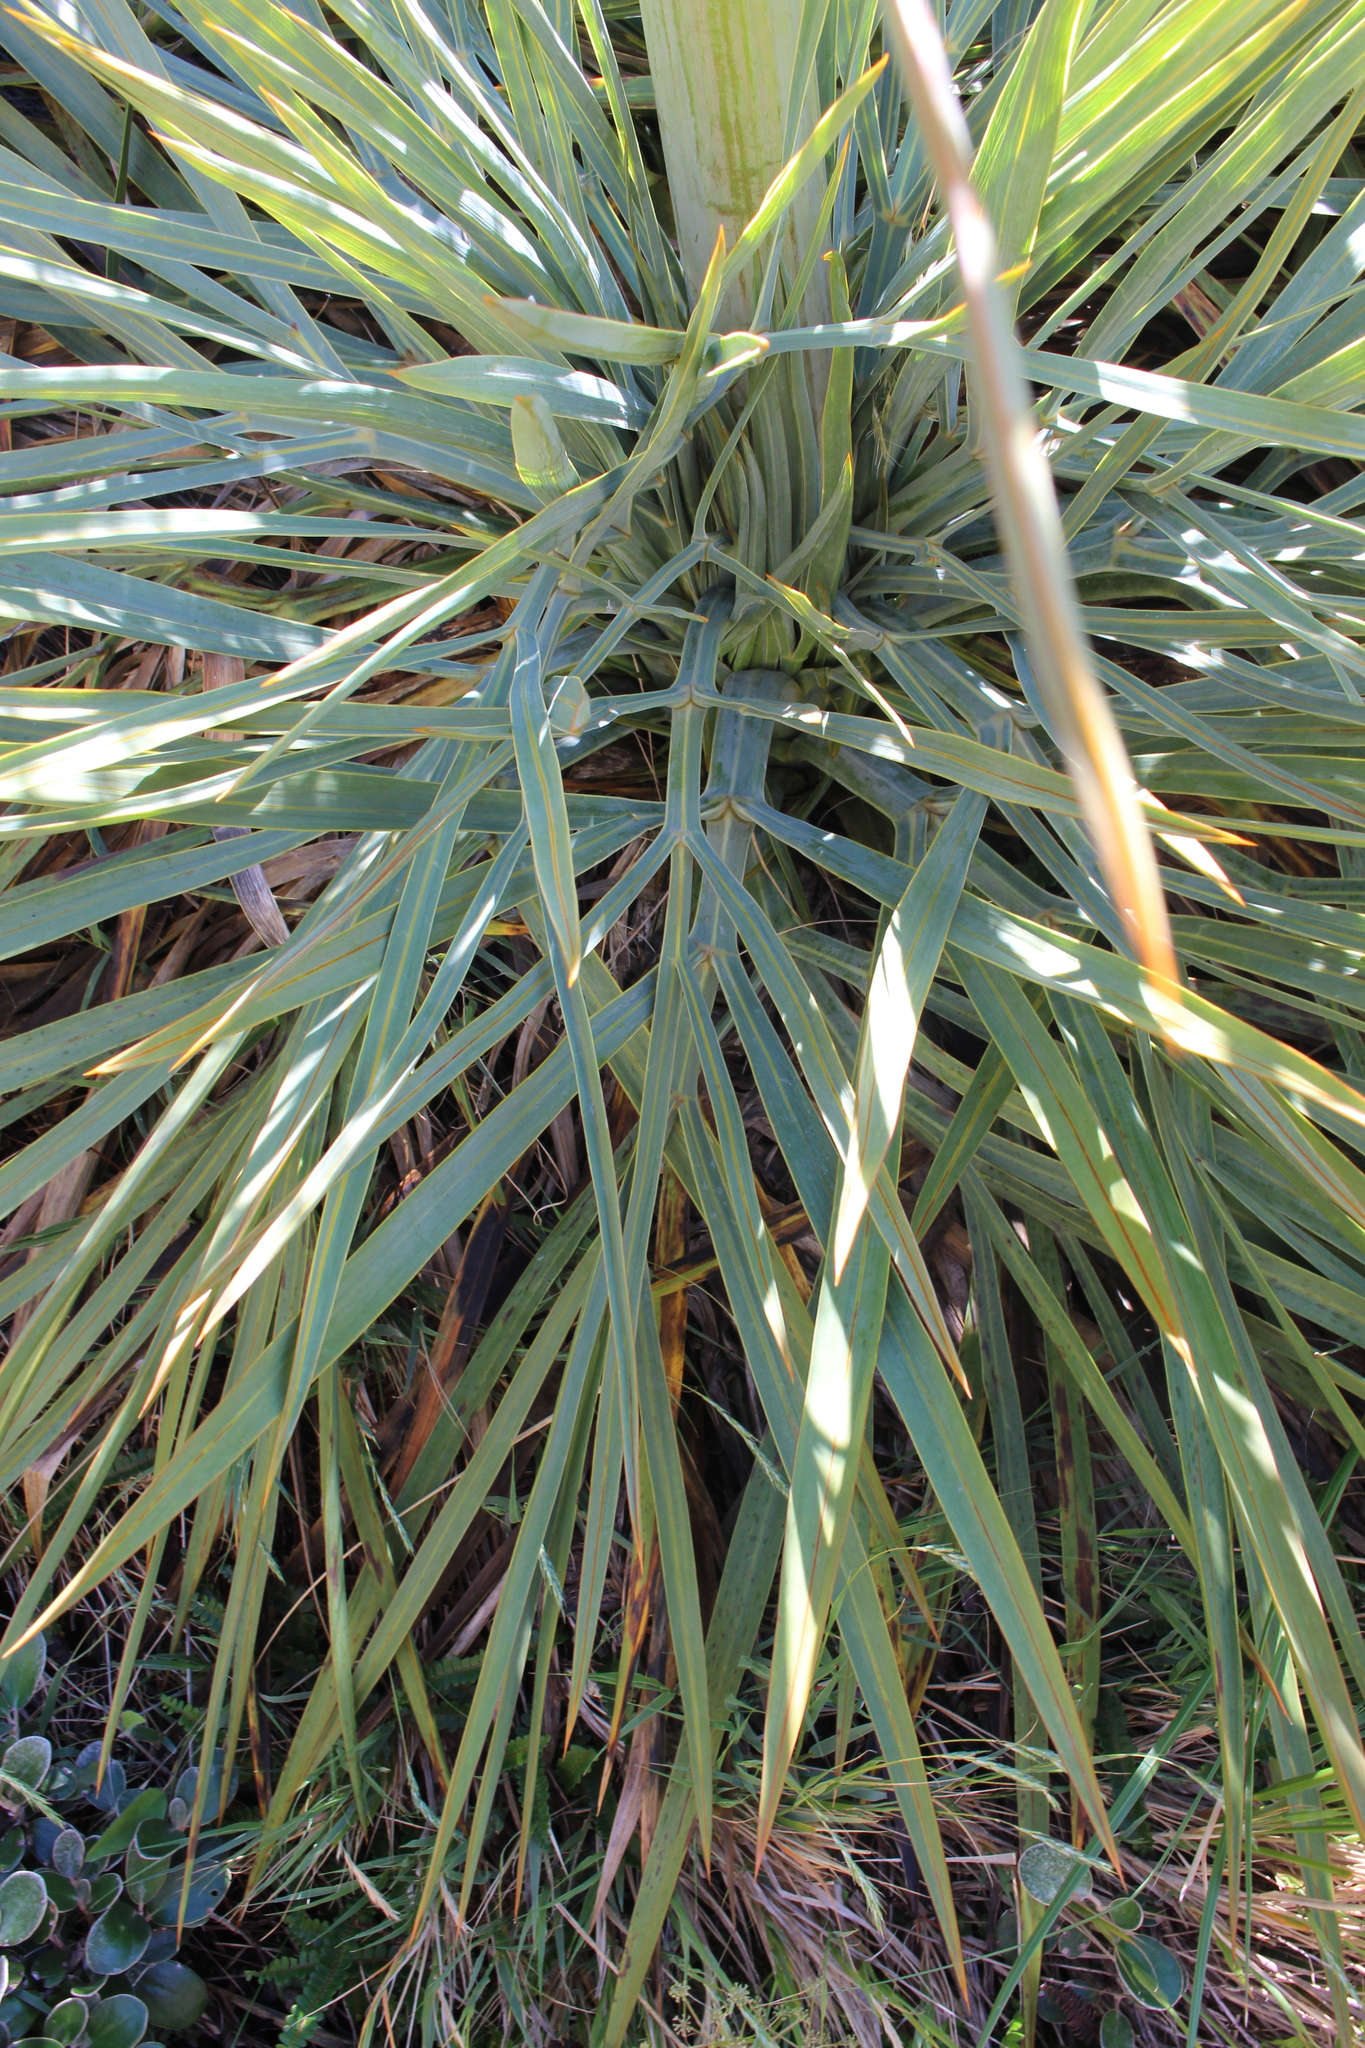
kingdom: Plantae
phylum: Tracheophyta
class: Magnoliopsida
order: Apiales
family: Apiaceae
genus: Aciphylla
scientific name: Aciphylla scott-thomsonii
